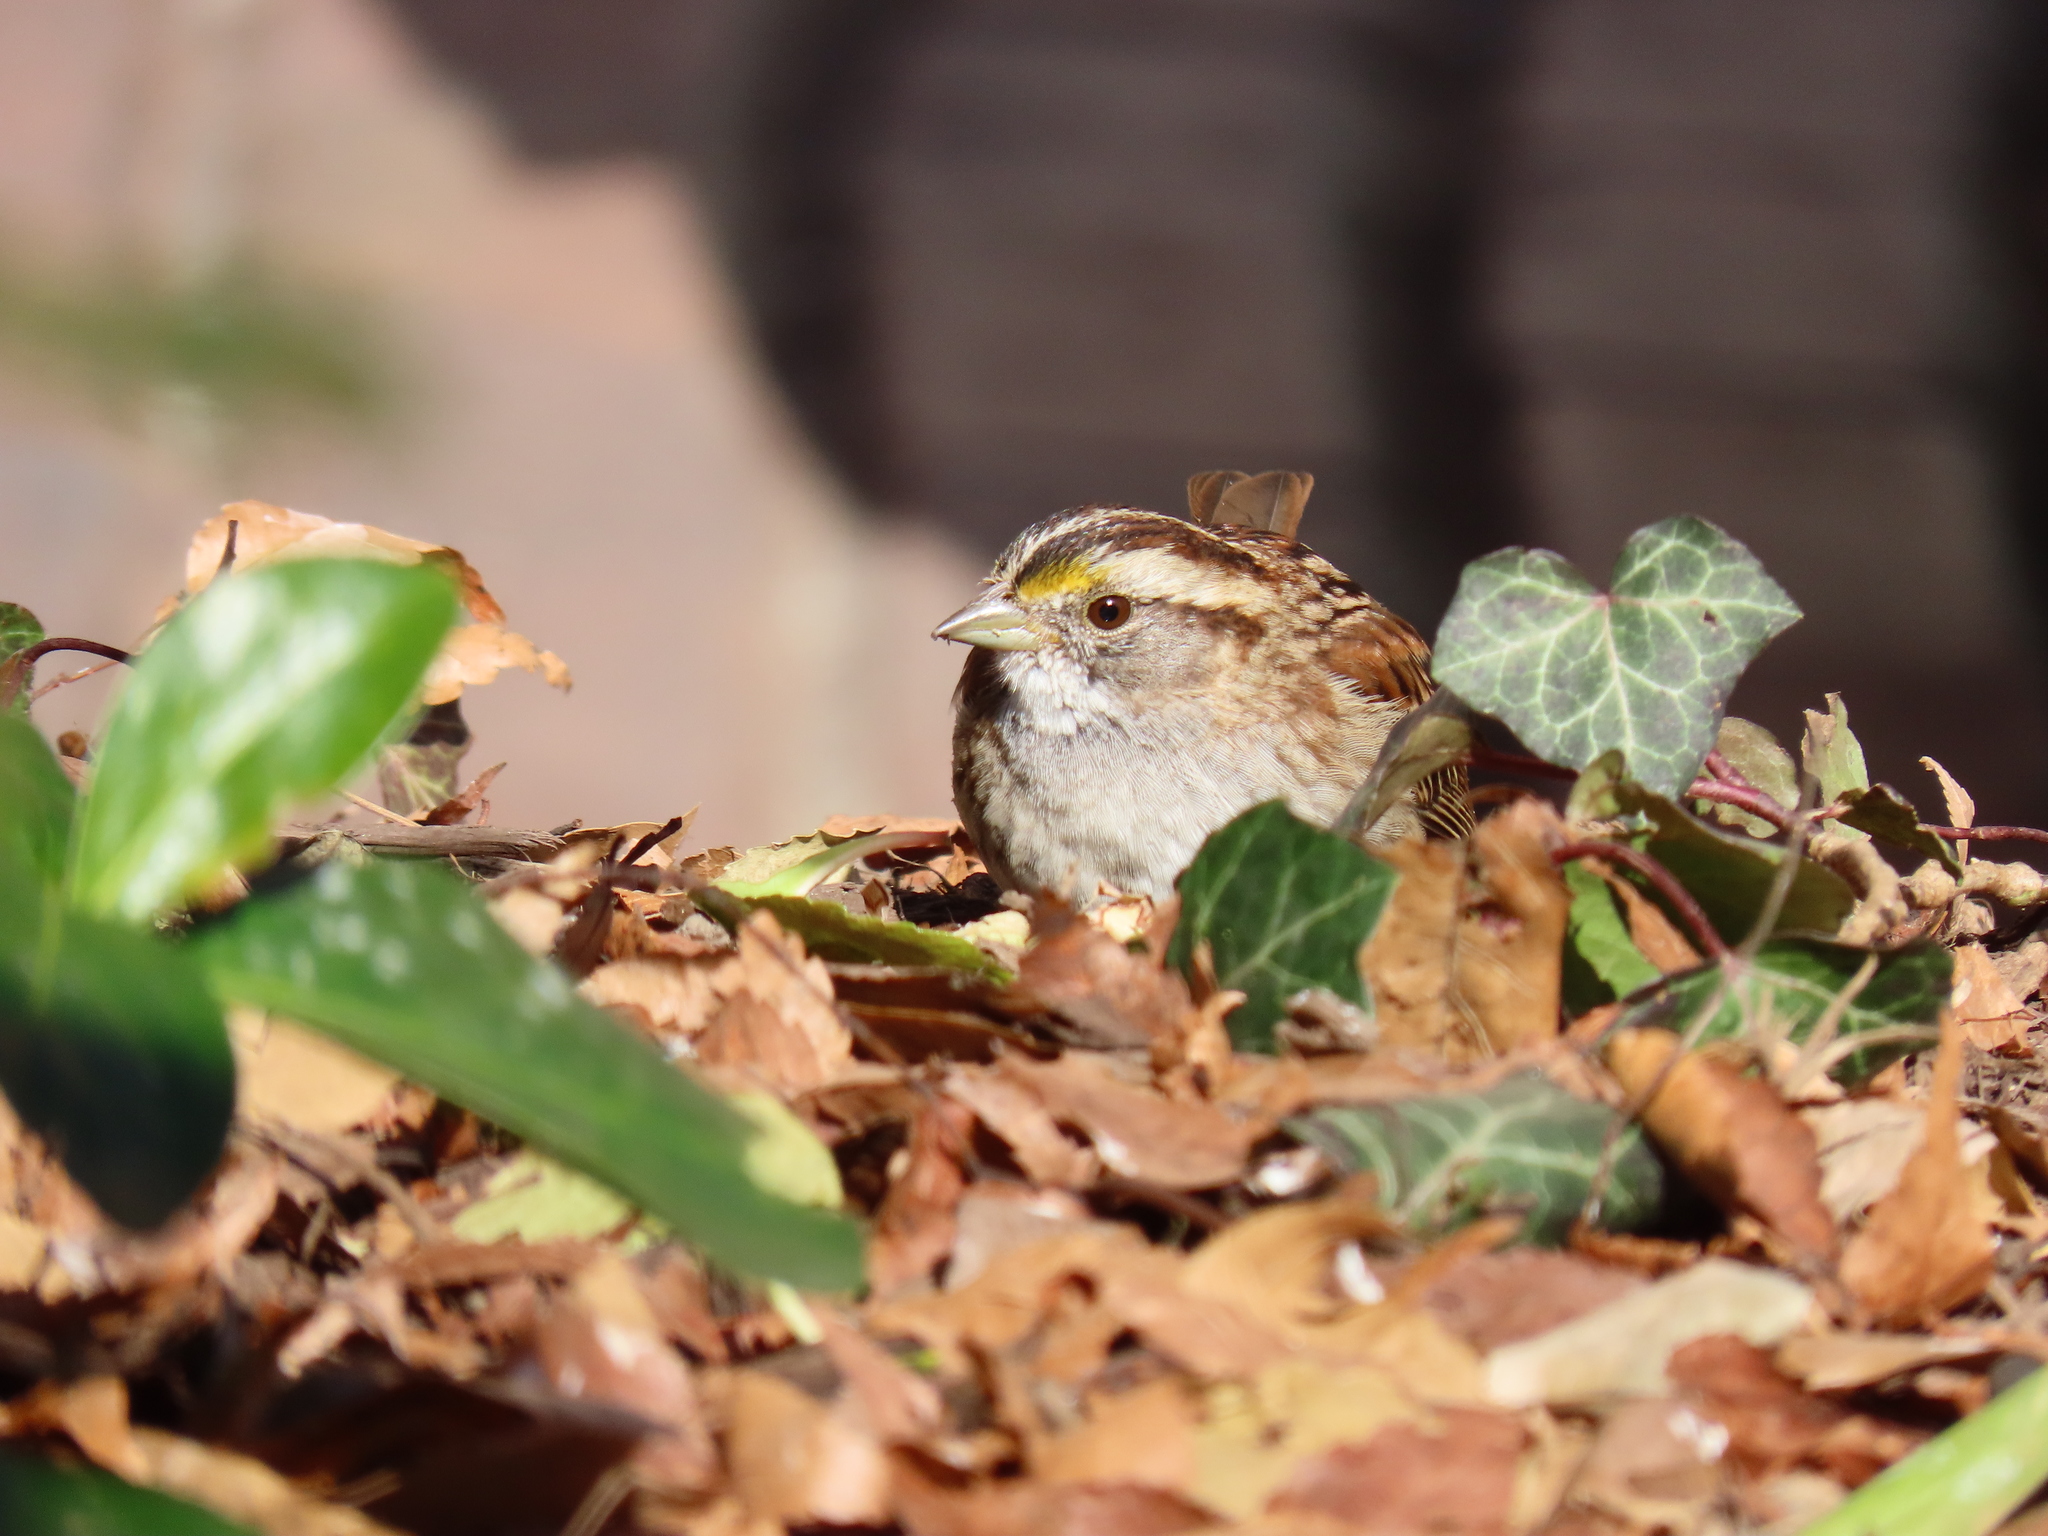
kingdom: Animalia
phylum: Chordata
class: Aves
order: Passeriformes
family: Passerellidae
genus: Zonotrichia
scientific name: Zonotrichia albicollis
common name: White-throated sparrow
